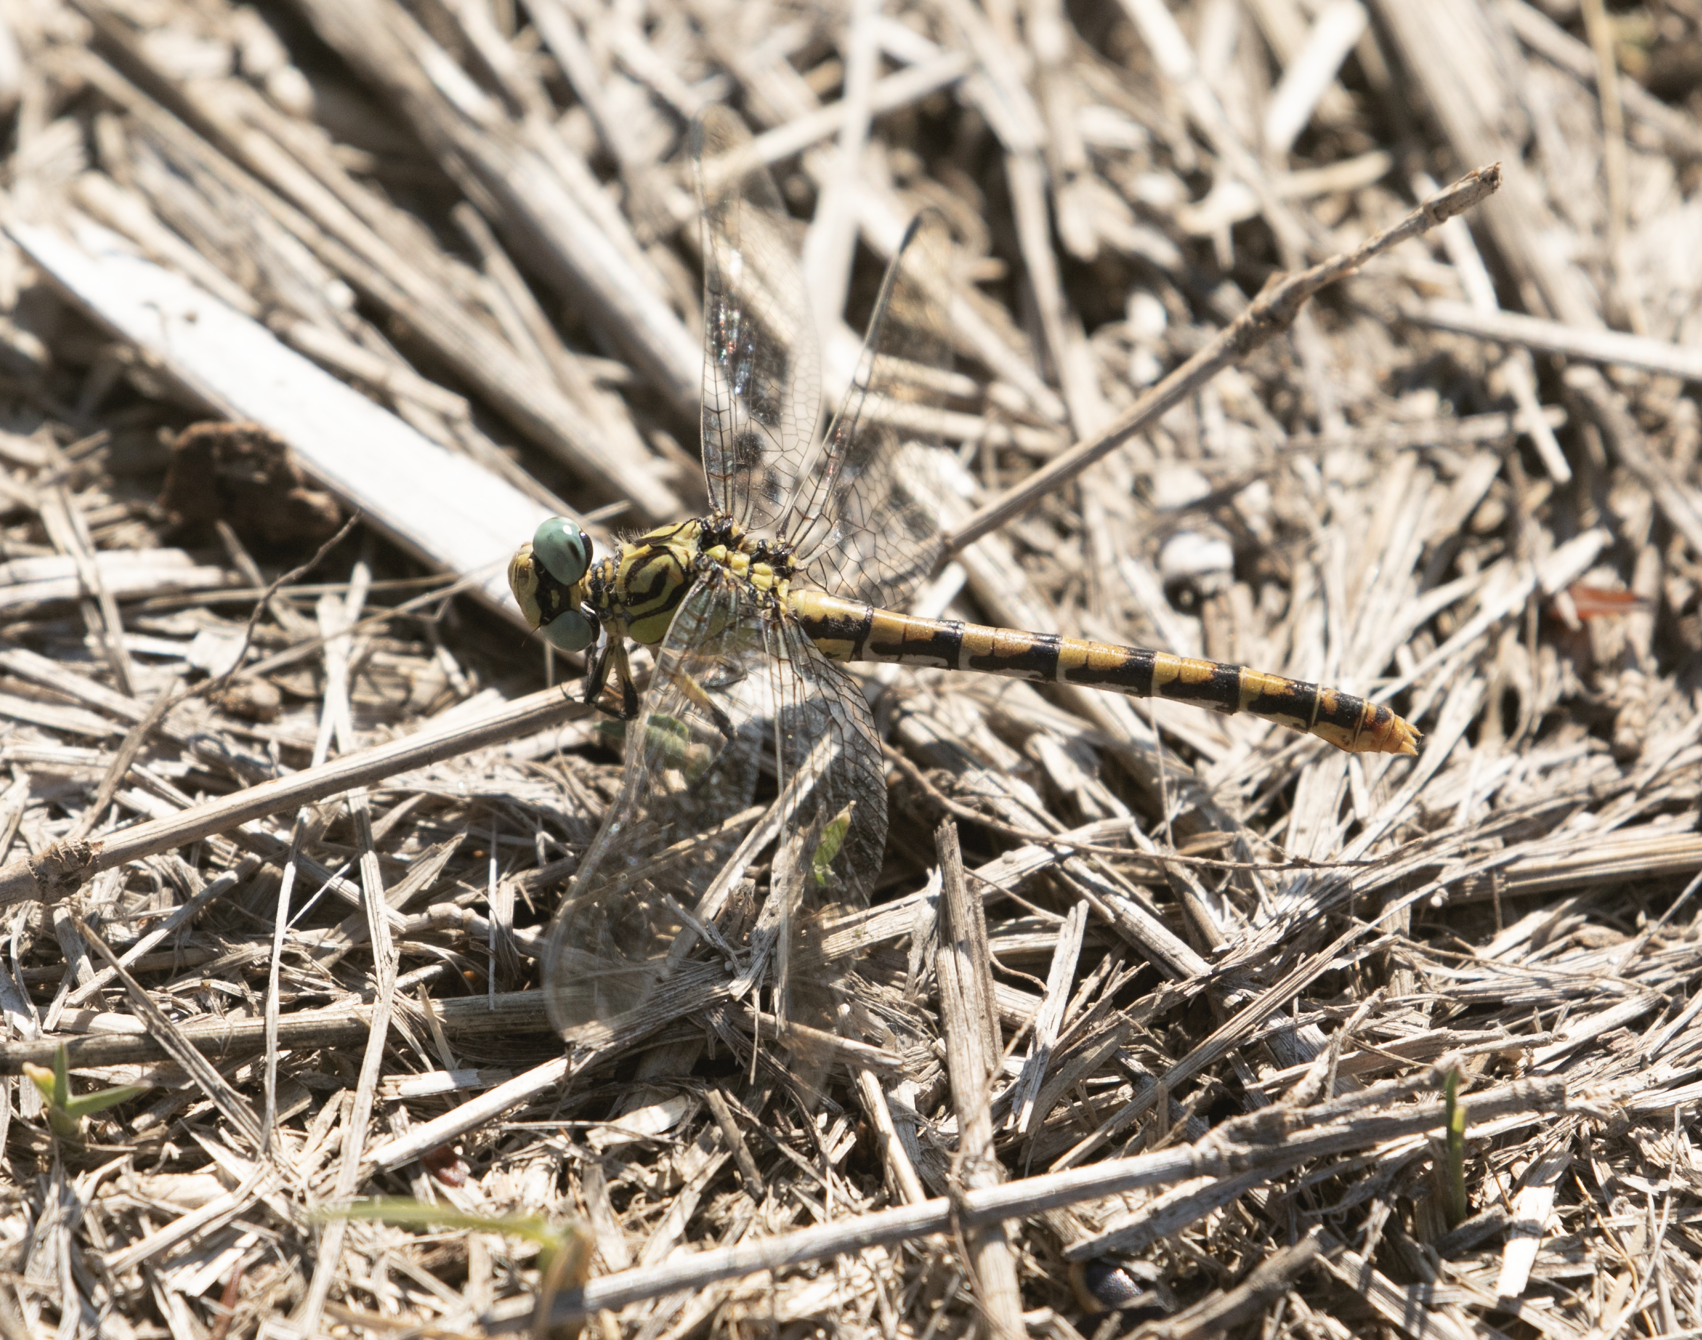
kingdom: Animalia
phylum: Arthropoda
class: Insecta
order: Odonata
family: Gomphidae
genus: Onychogomphus
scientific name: Onychogomphus forcipatus
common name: Small pincertail
